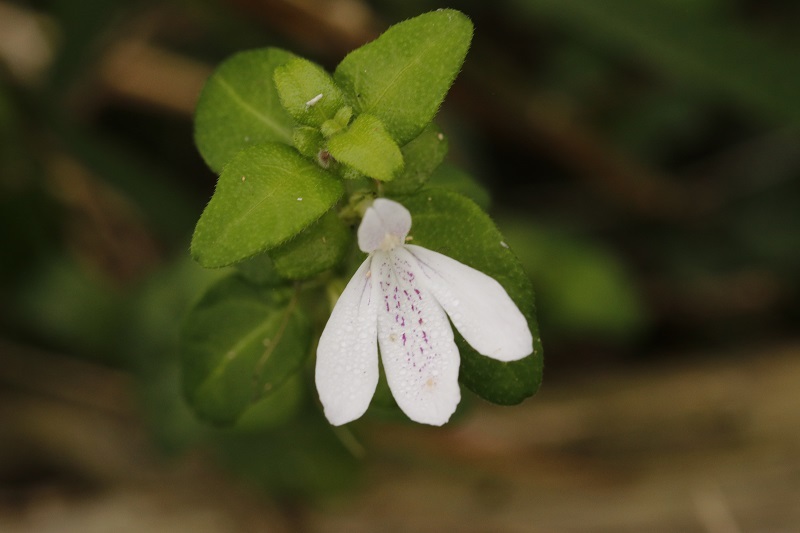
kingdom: Plantae
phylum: Tracheophyta
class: Magnoliopsida
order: Lamiales
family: Acanthaceae
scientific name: Acanthaceae
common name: Acanthaceae
